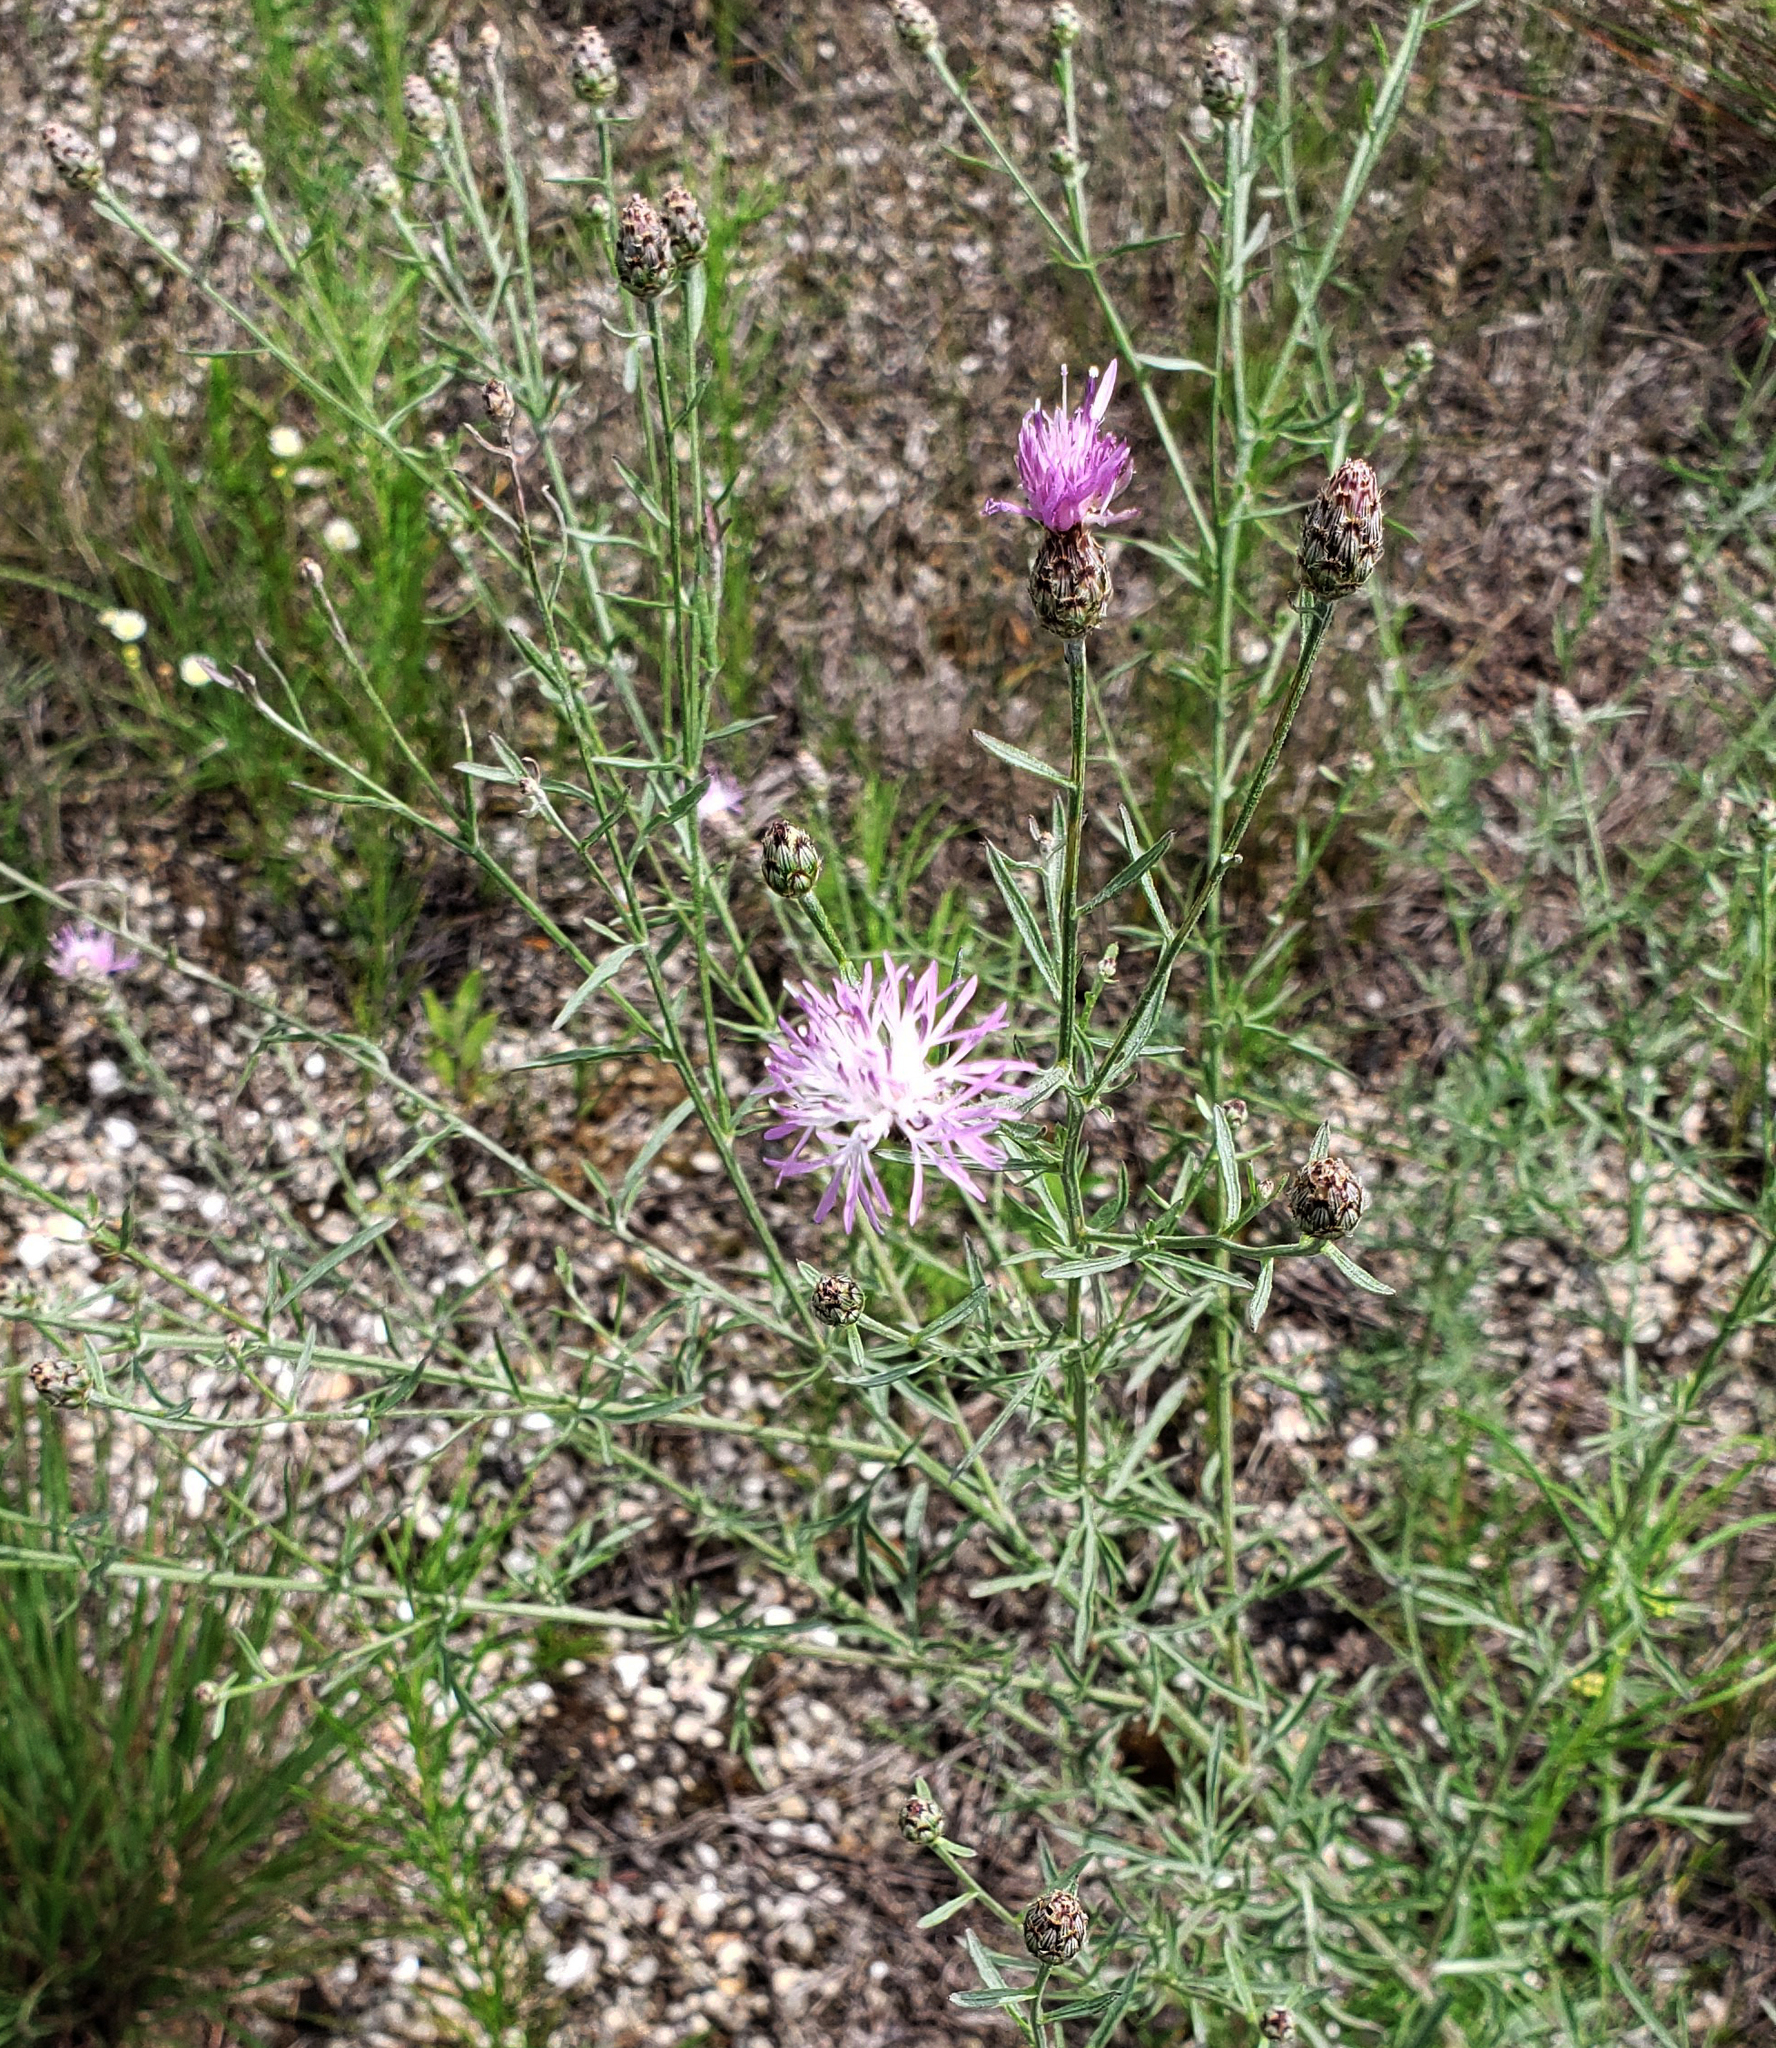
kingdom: Plantae
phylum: Tracheophyta
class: Magnoliopsida
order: Asterales
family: Asteraceae
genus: Centaurea
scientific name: Centaurea stoebe
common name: Spotted knapweed
